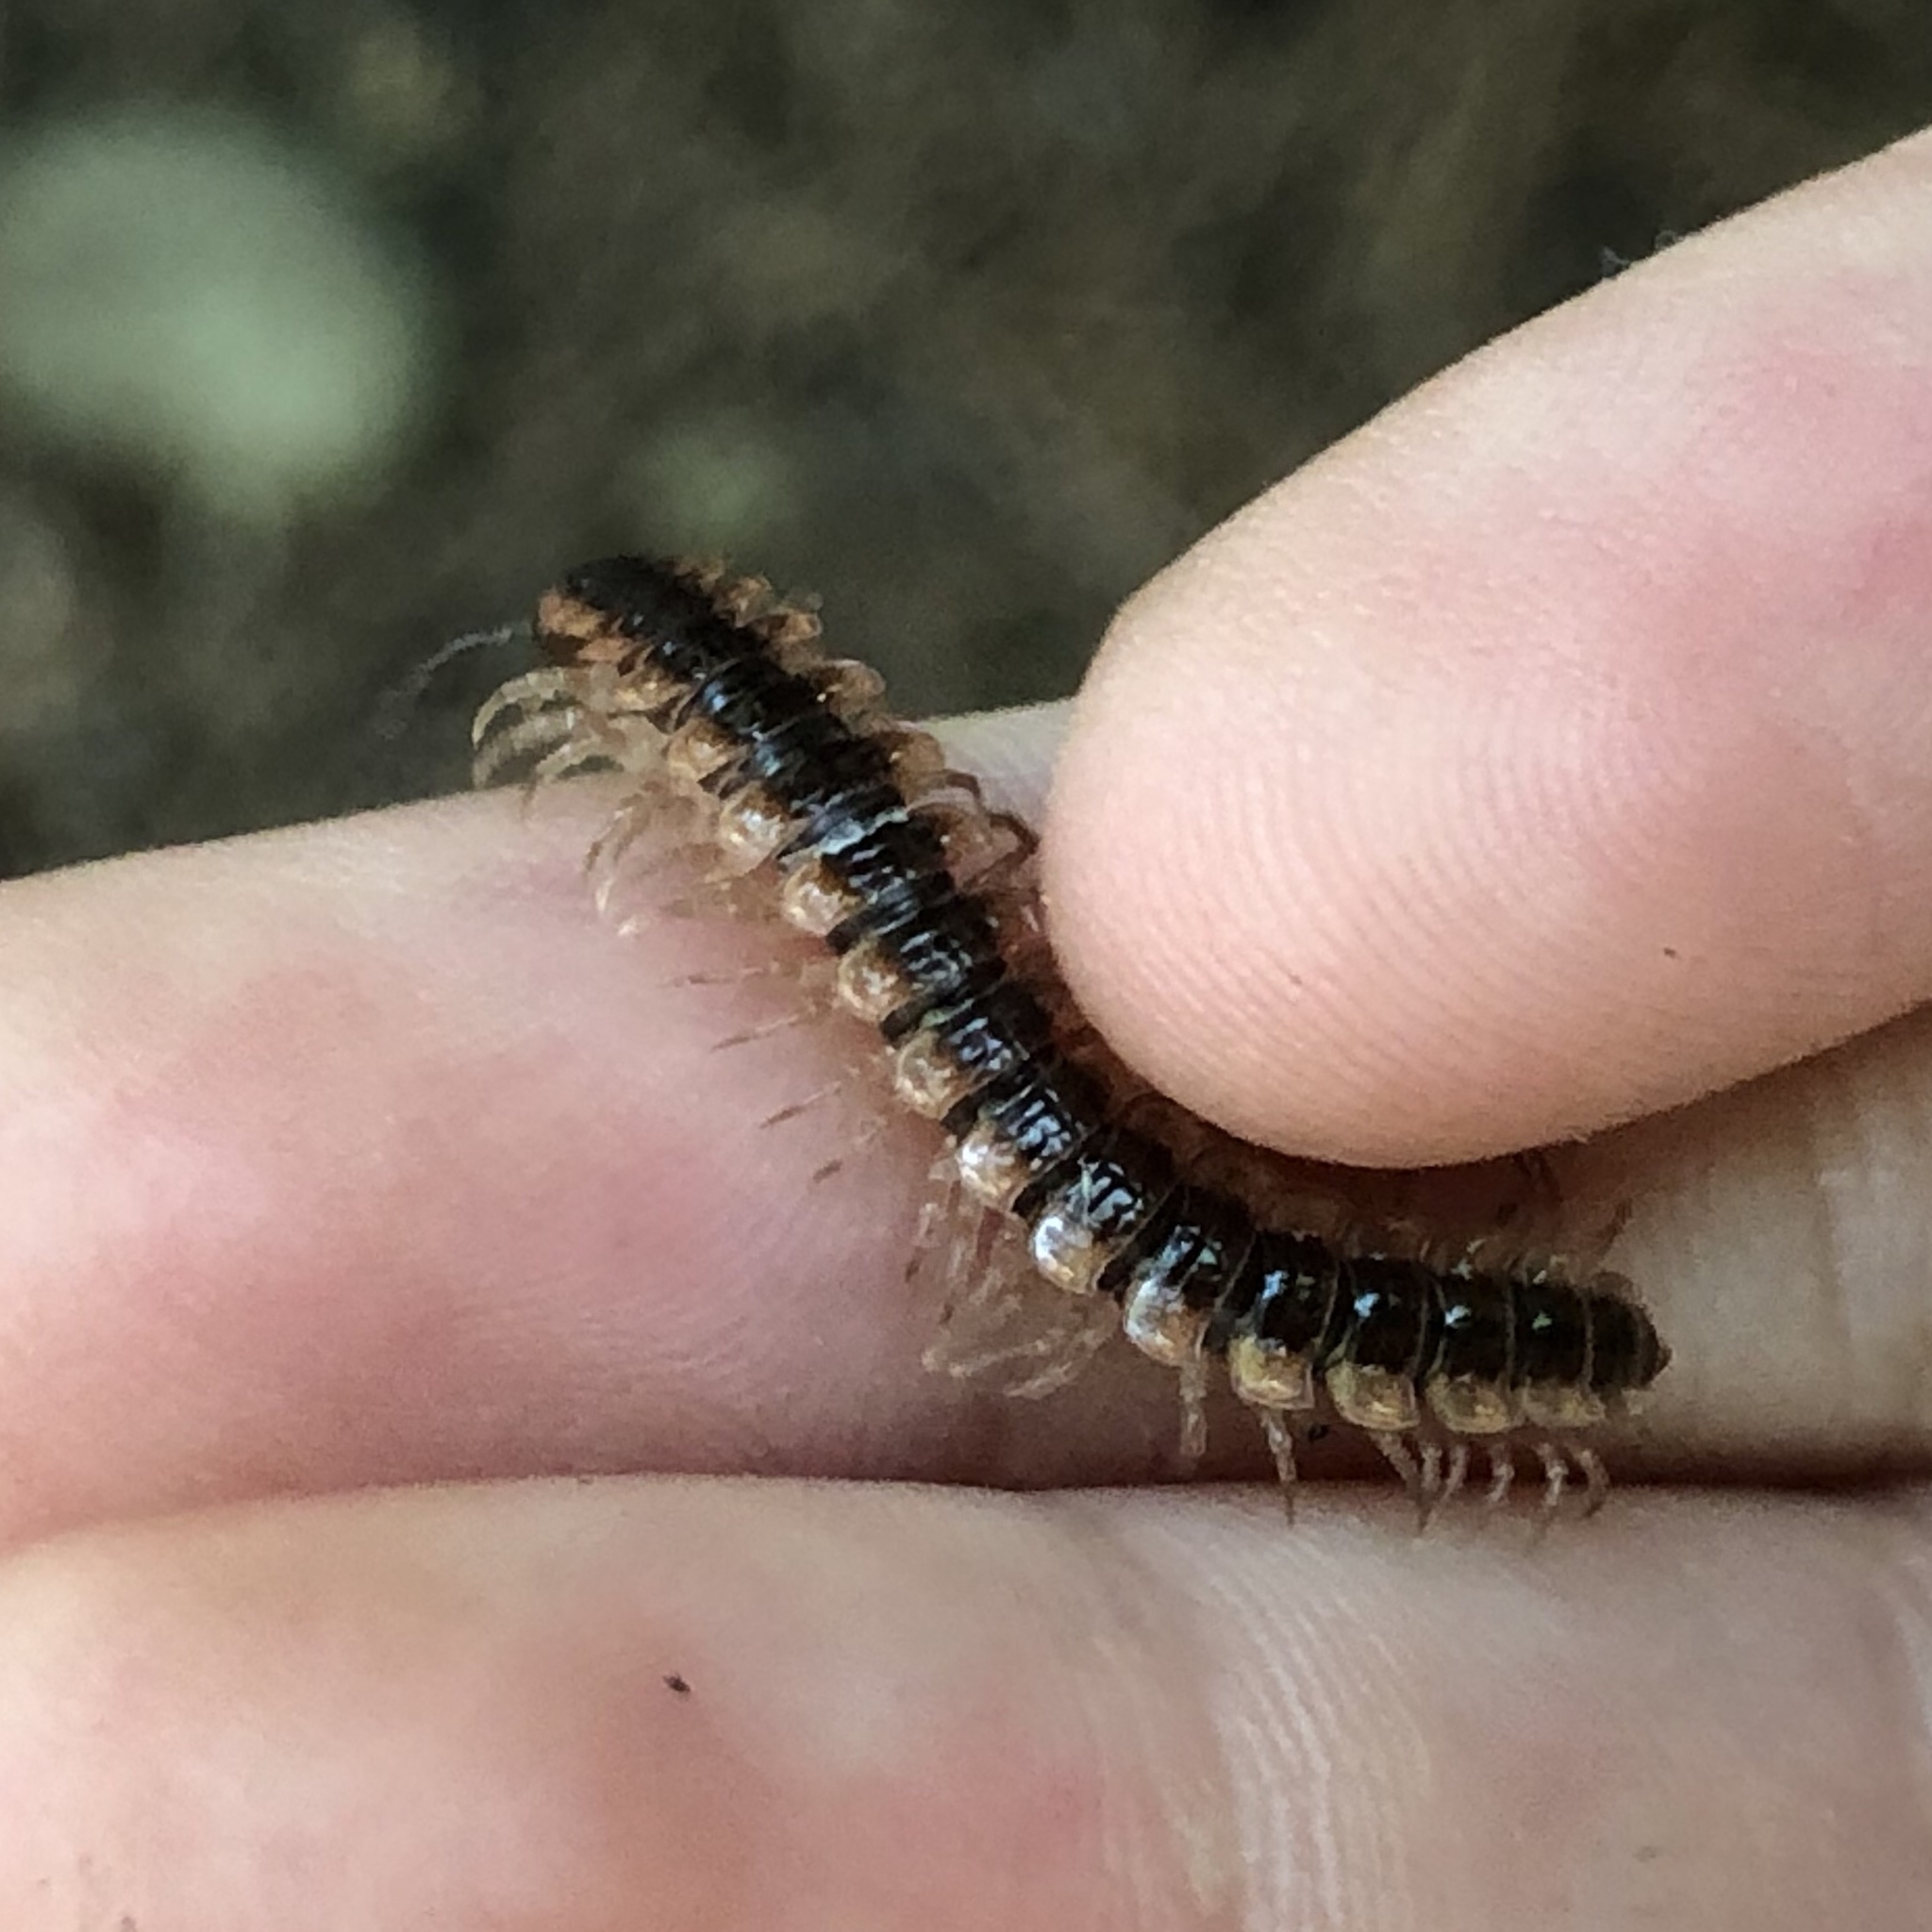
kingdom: Animalia
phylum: Arthropoda
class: Diplopoda
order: Polydesmida
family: Polydesmidae
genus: Pseudopolydesmus
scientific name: Pseudopolydesmus canadensis
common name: Canadian flat-back millipede
